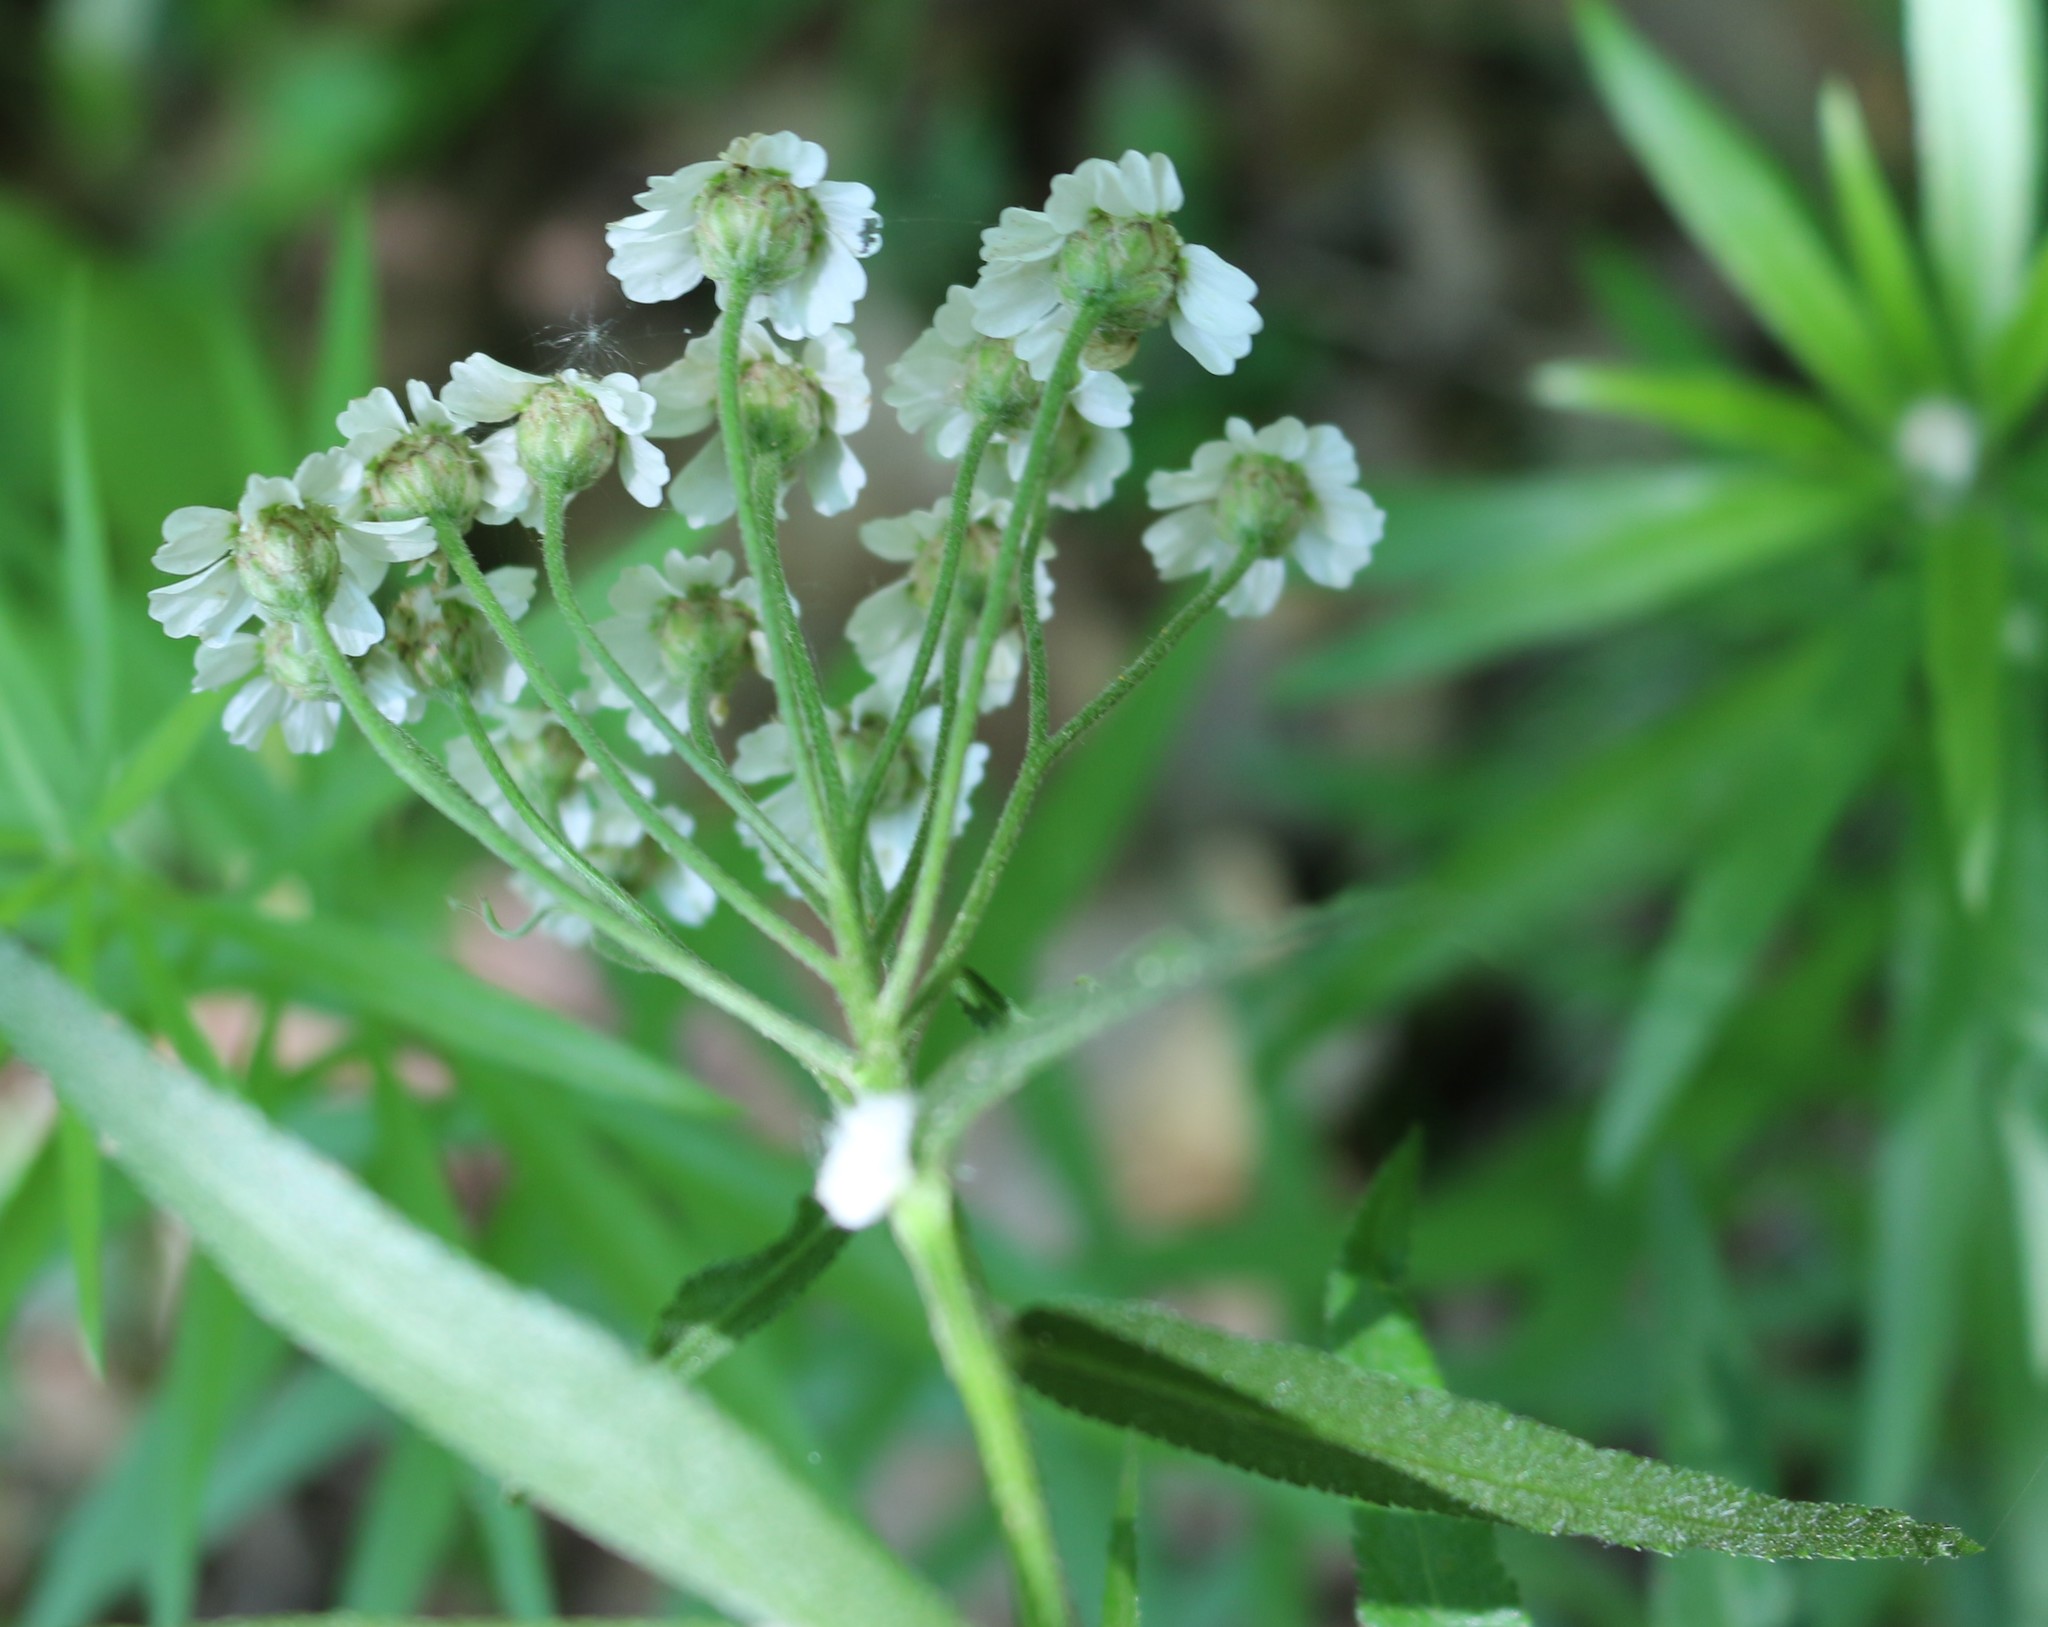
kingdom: Plantae
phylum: Tracheophyta
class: Magnoliopsida
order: Asterales
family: Asteraceae
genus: Achillea
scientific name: Achillea biserrata
